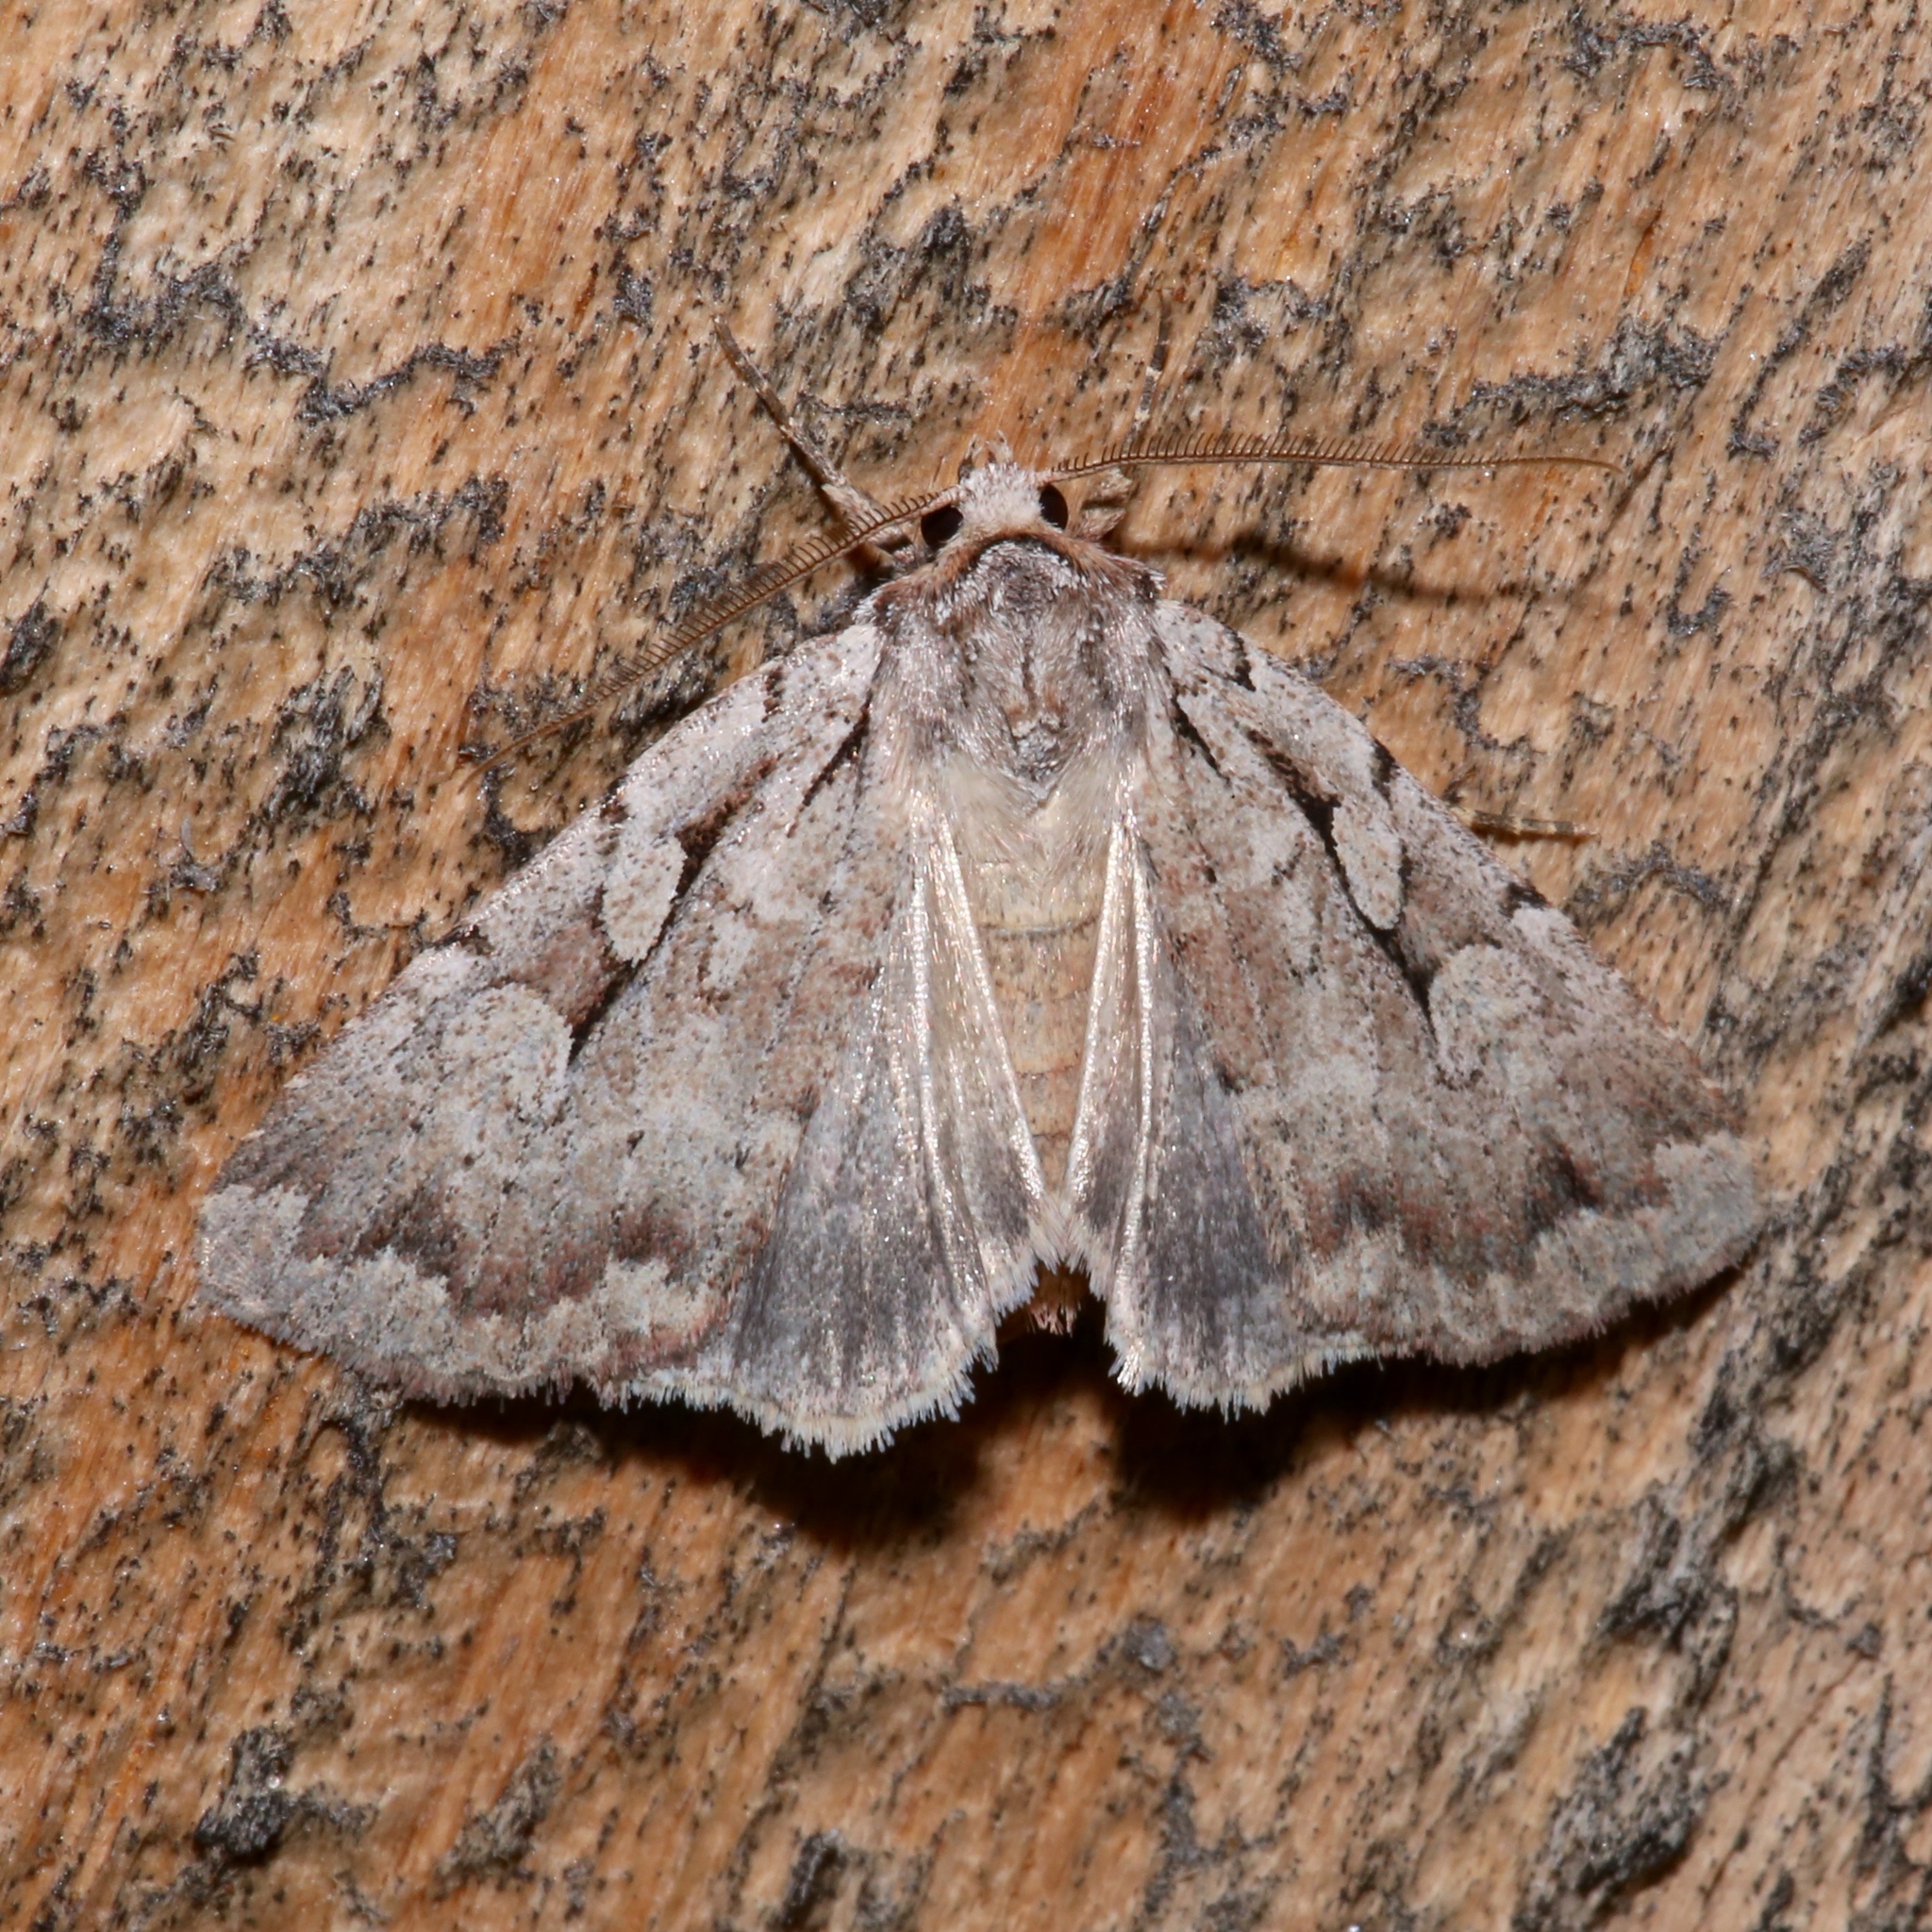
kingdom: Animalia
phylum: Arthropoda
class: Insecta
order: Lepidoptera
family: Noctuidae
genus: Xestia
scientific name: Xestia badicollis
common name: Northern variable dart
